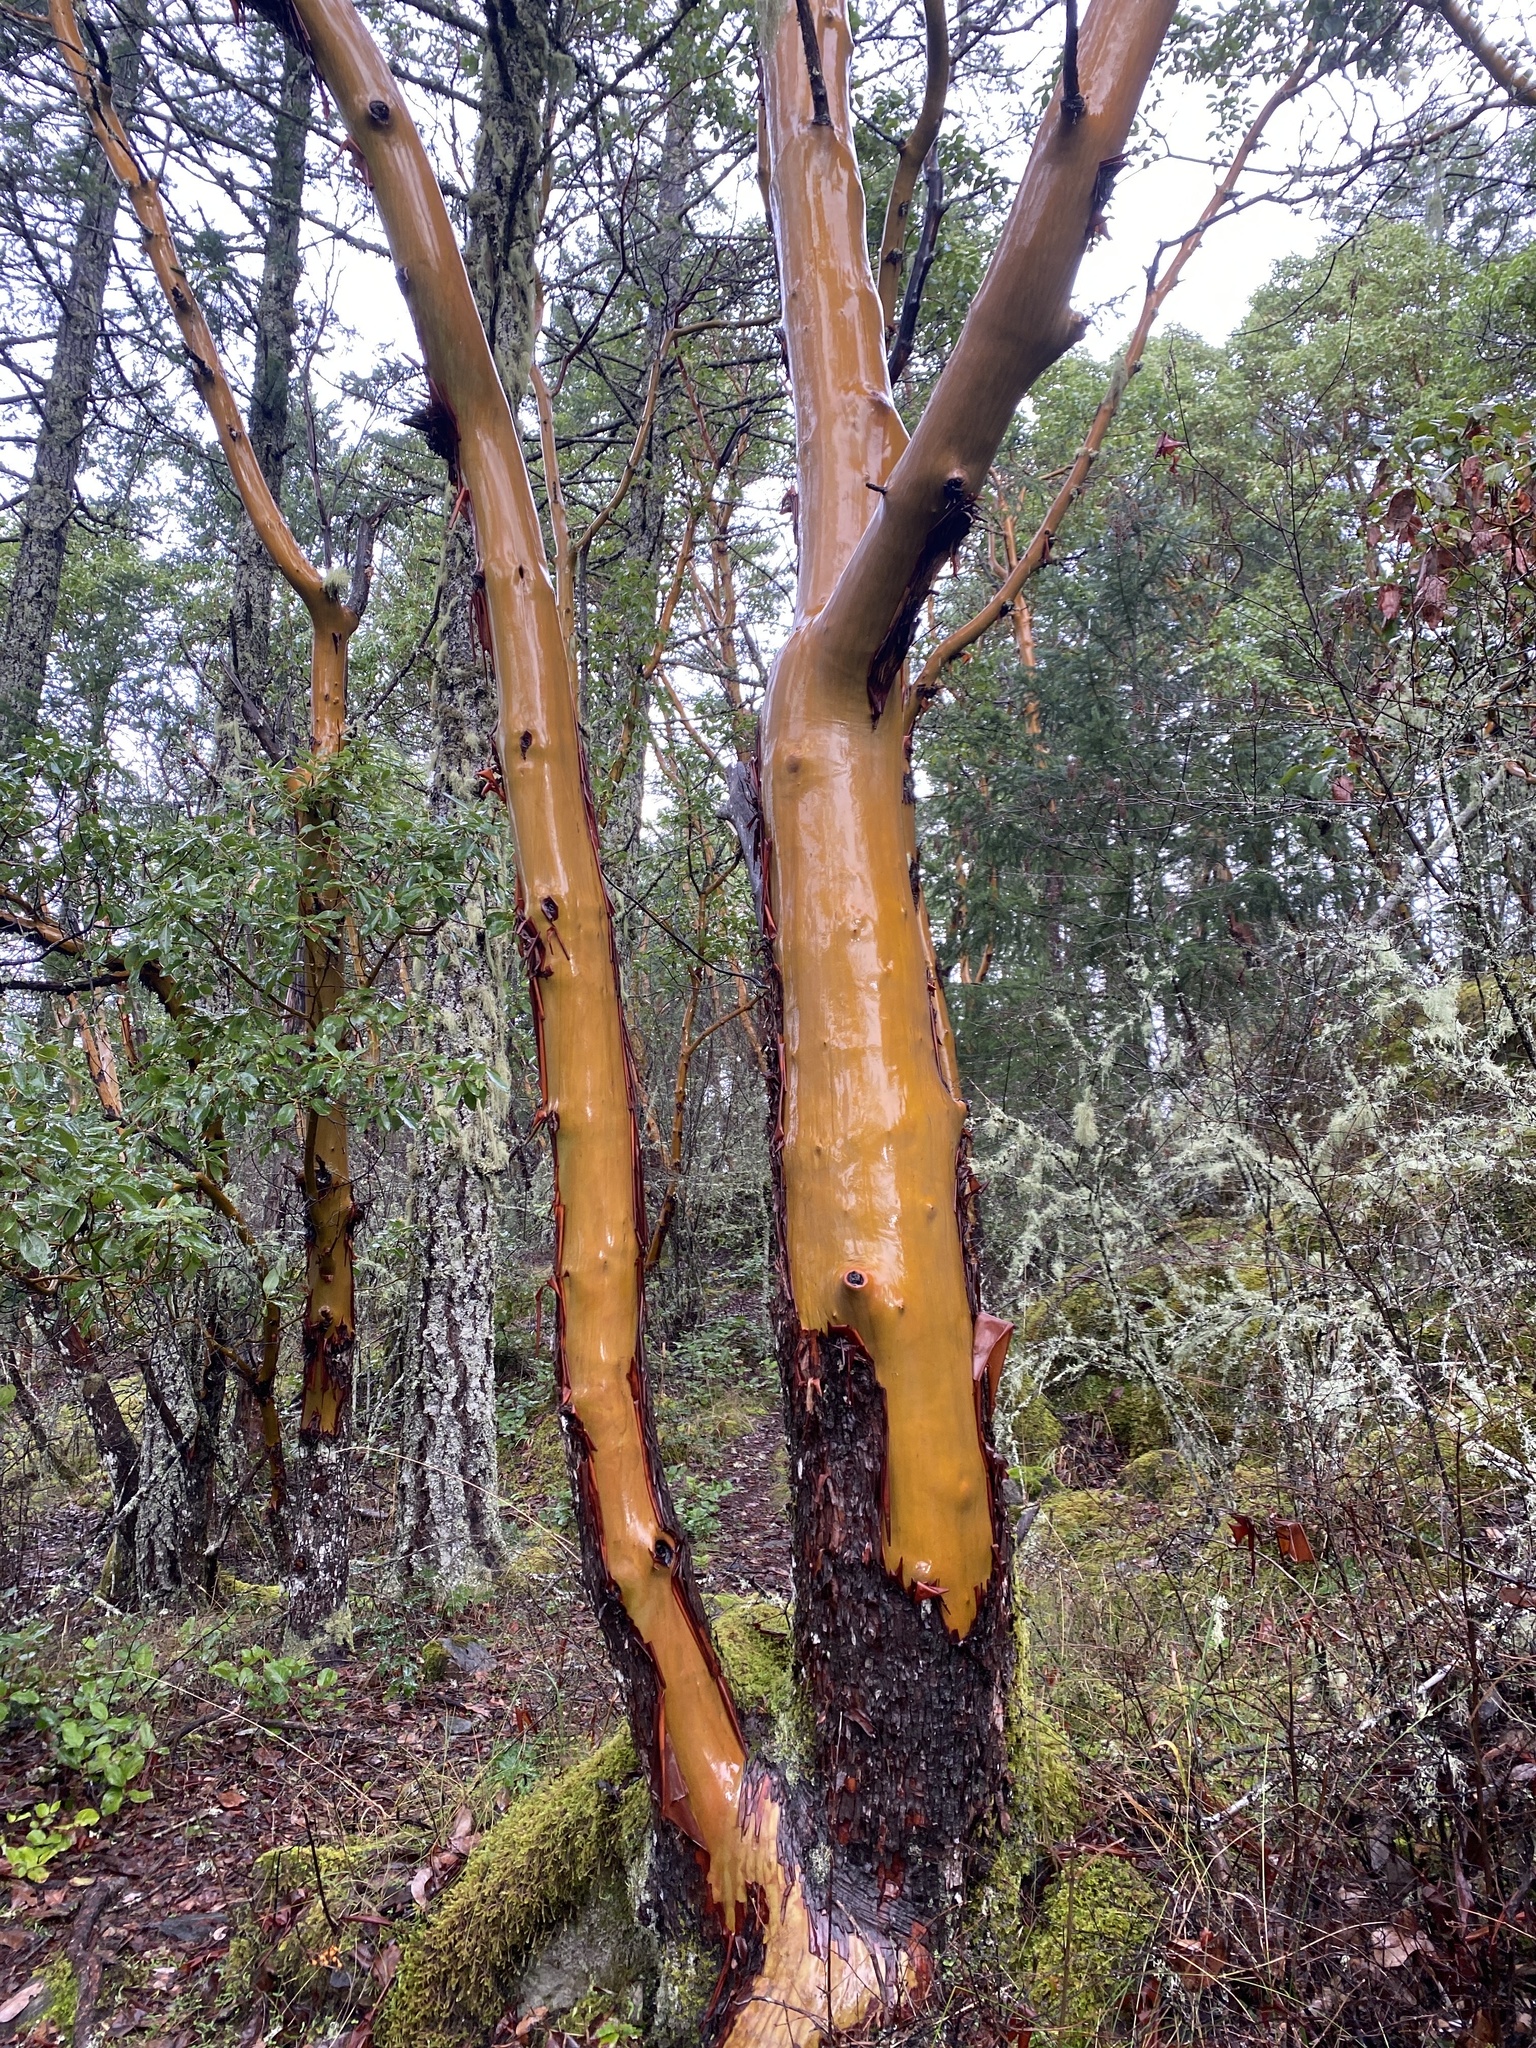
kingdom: Plantae
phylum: Tracheophyta
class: Magnoliopsida
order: Ericales
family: Ericaceae
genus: Arbutus
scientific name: Arbutus menziesii
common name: Pacific madrone
